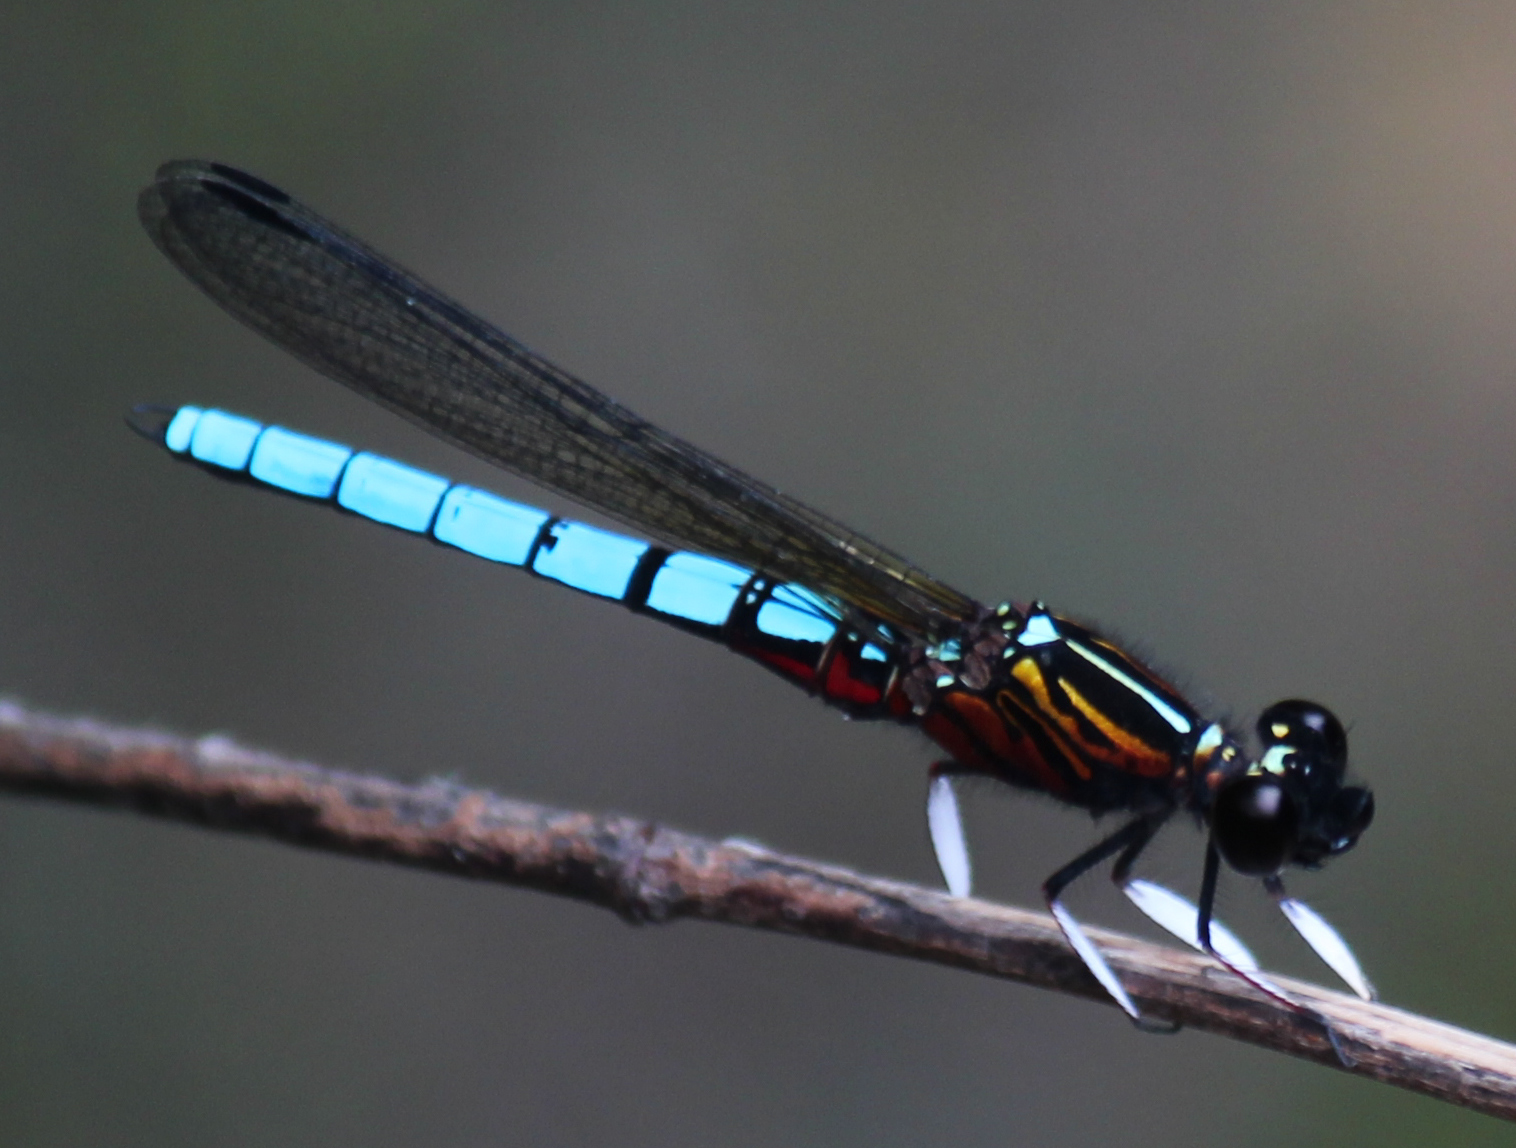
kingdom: Animalia
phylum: Arthropoda
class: Insecta
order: Odonata
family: Chlorocyphidae
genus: Platycypha
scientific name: Platycypha caligata
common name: Dancing jewel
